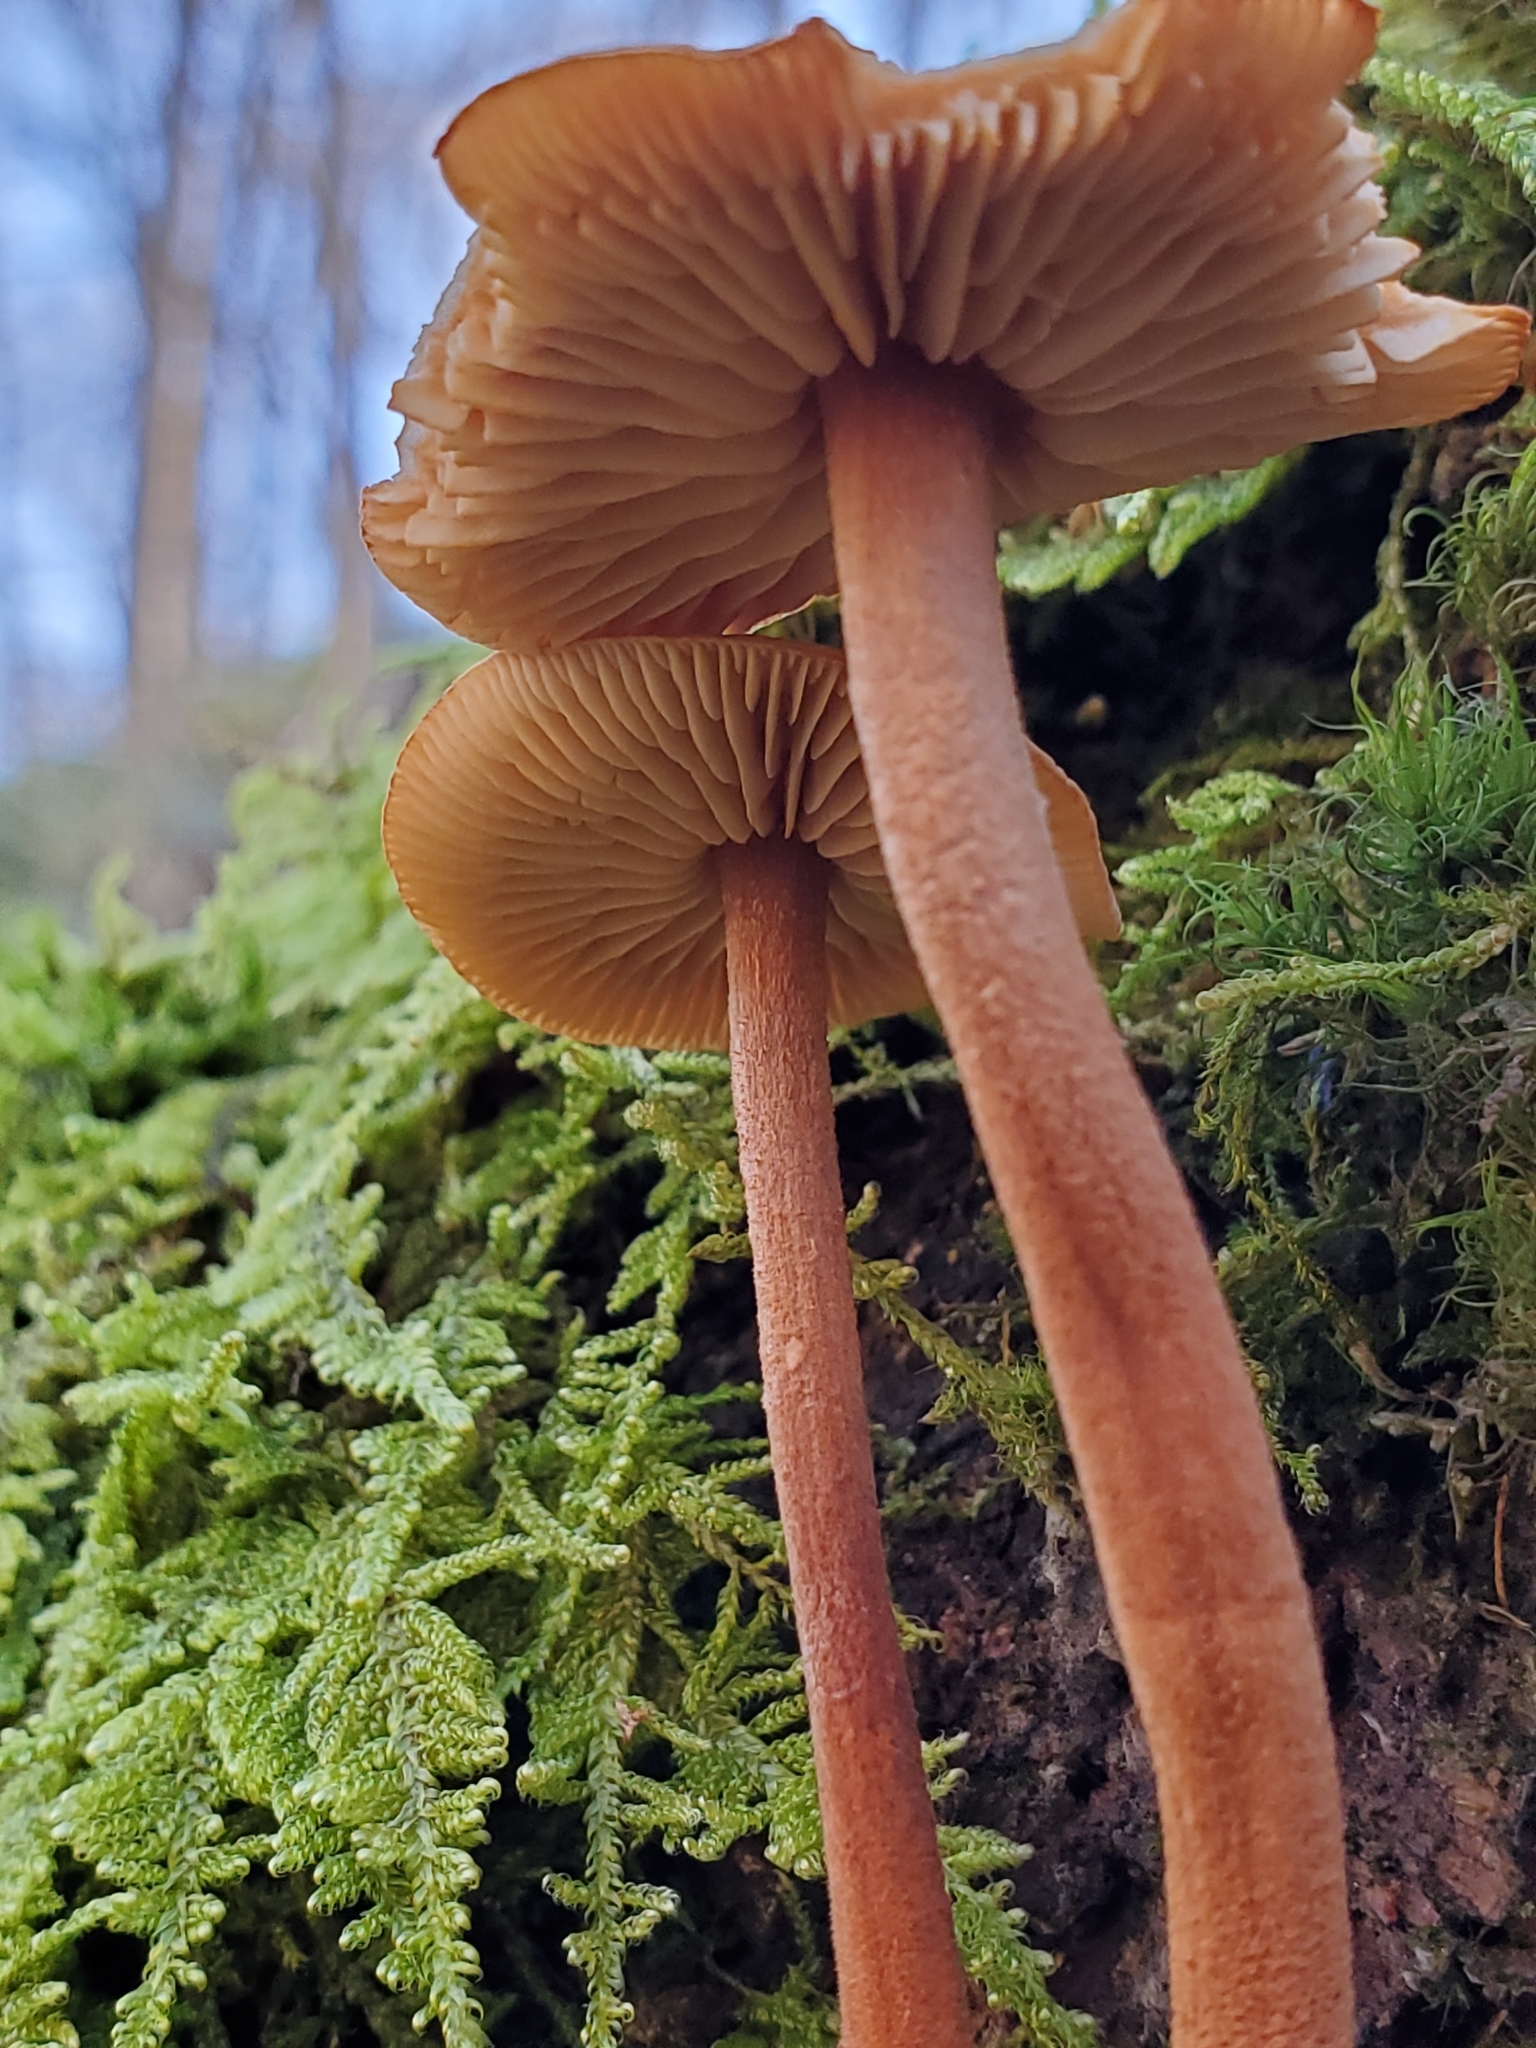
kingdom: Fungi
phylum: Basidiomycota
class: Agaricomycetes
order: Agaricales
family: Hydnangiaceae
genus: Laccaria
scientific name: Laccaria laccata
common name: Deceiver
